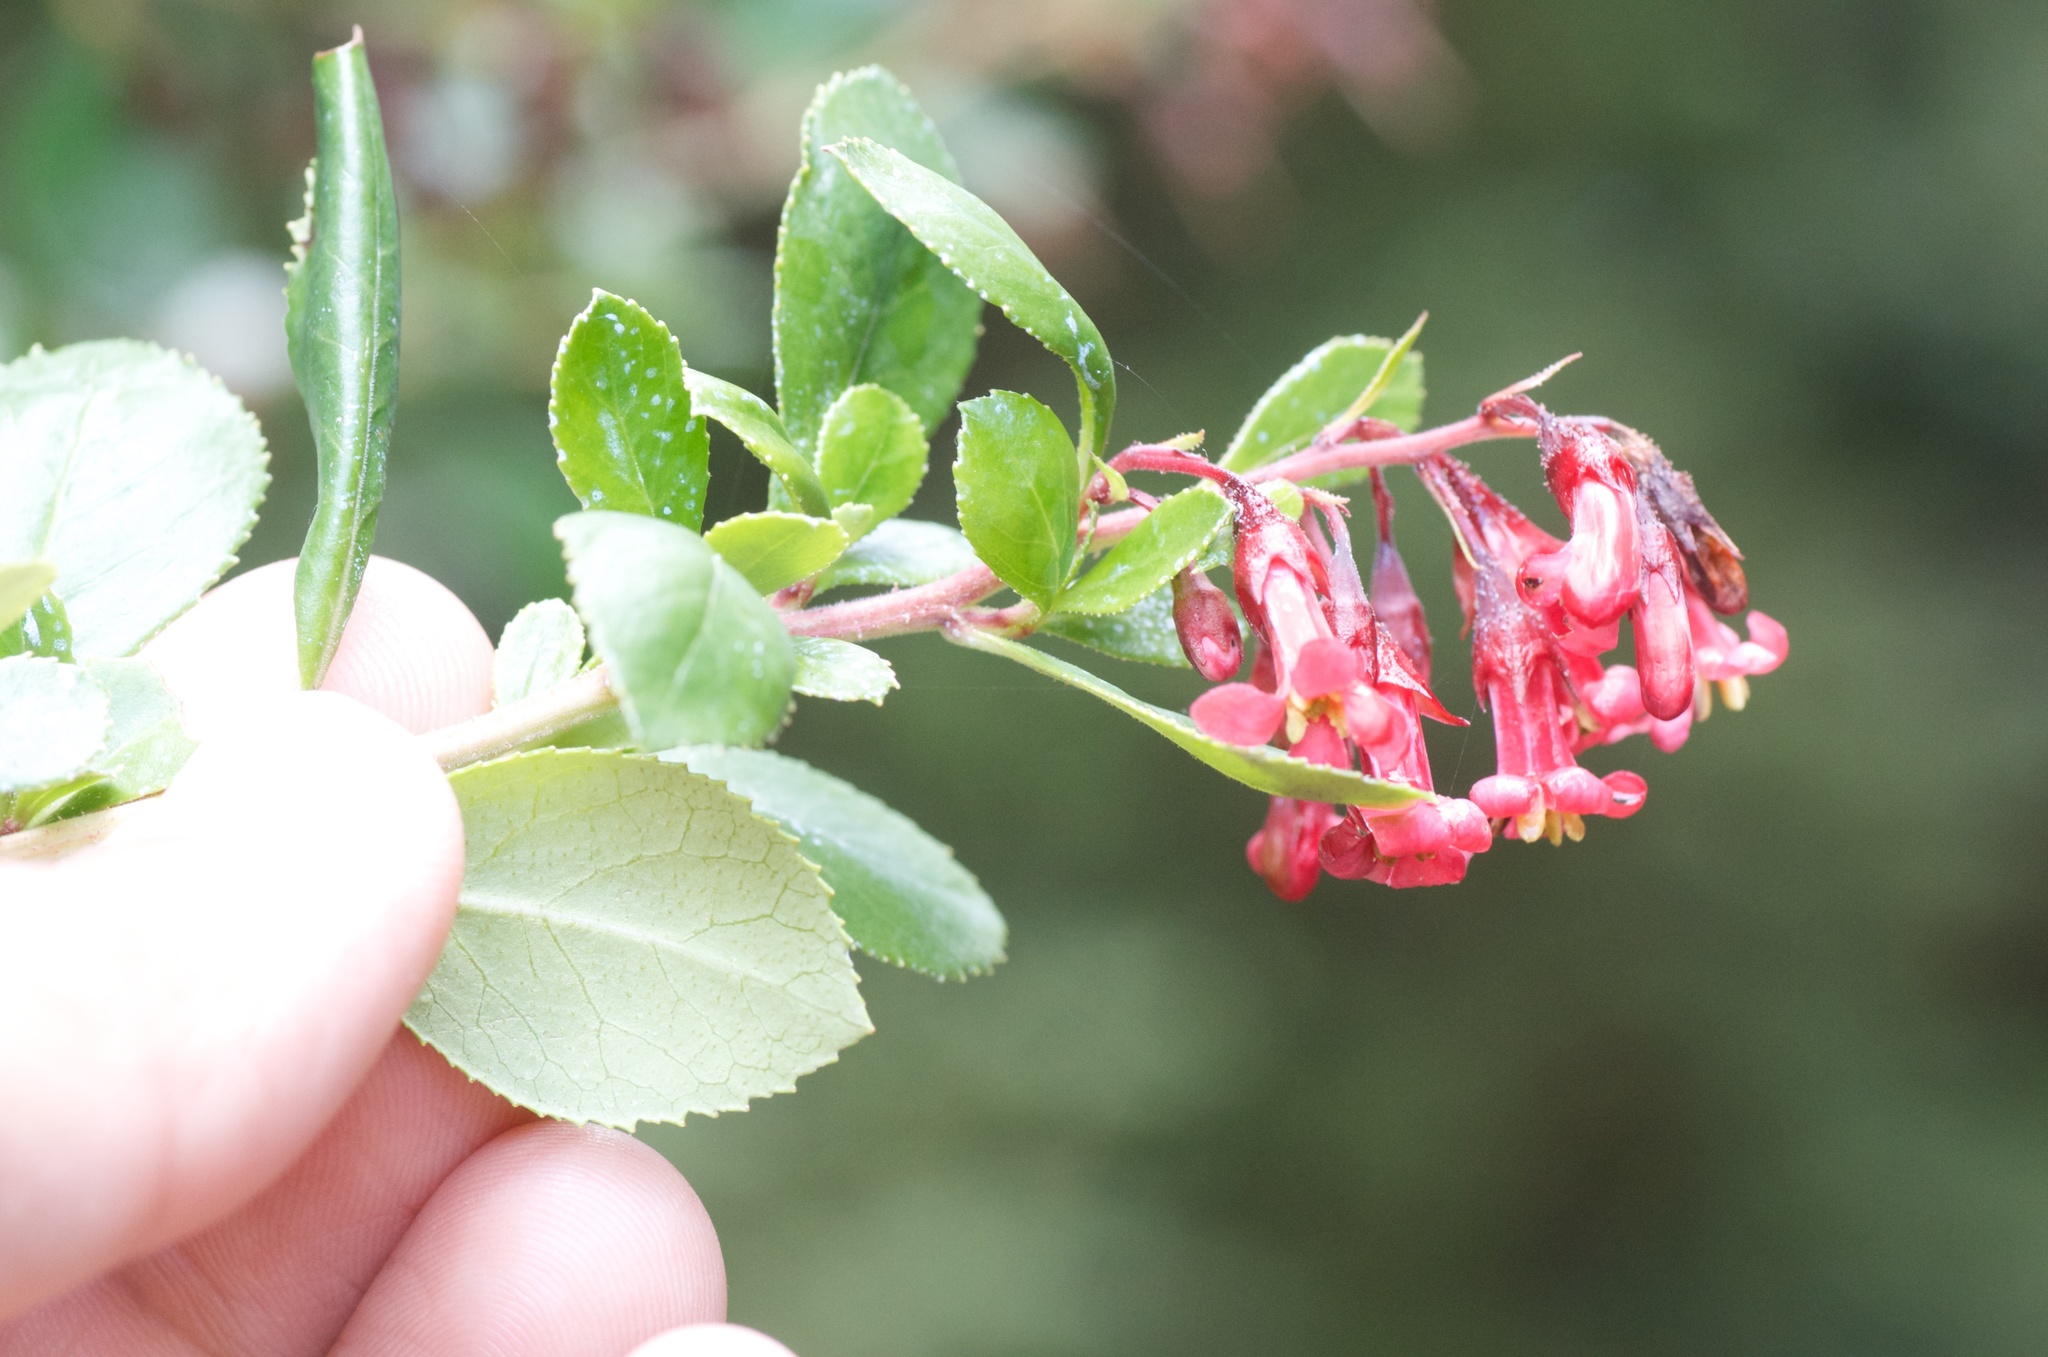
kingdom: Plantae
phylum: Tracheophyta
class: Magnoliopsida
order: Escalloniales
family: Escalloniaceae
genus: Escallonia
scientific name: Escallonia rubra
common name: Redclaws
